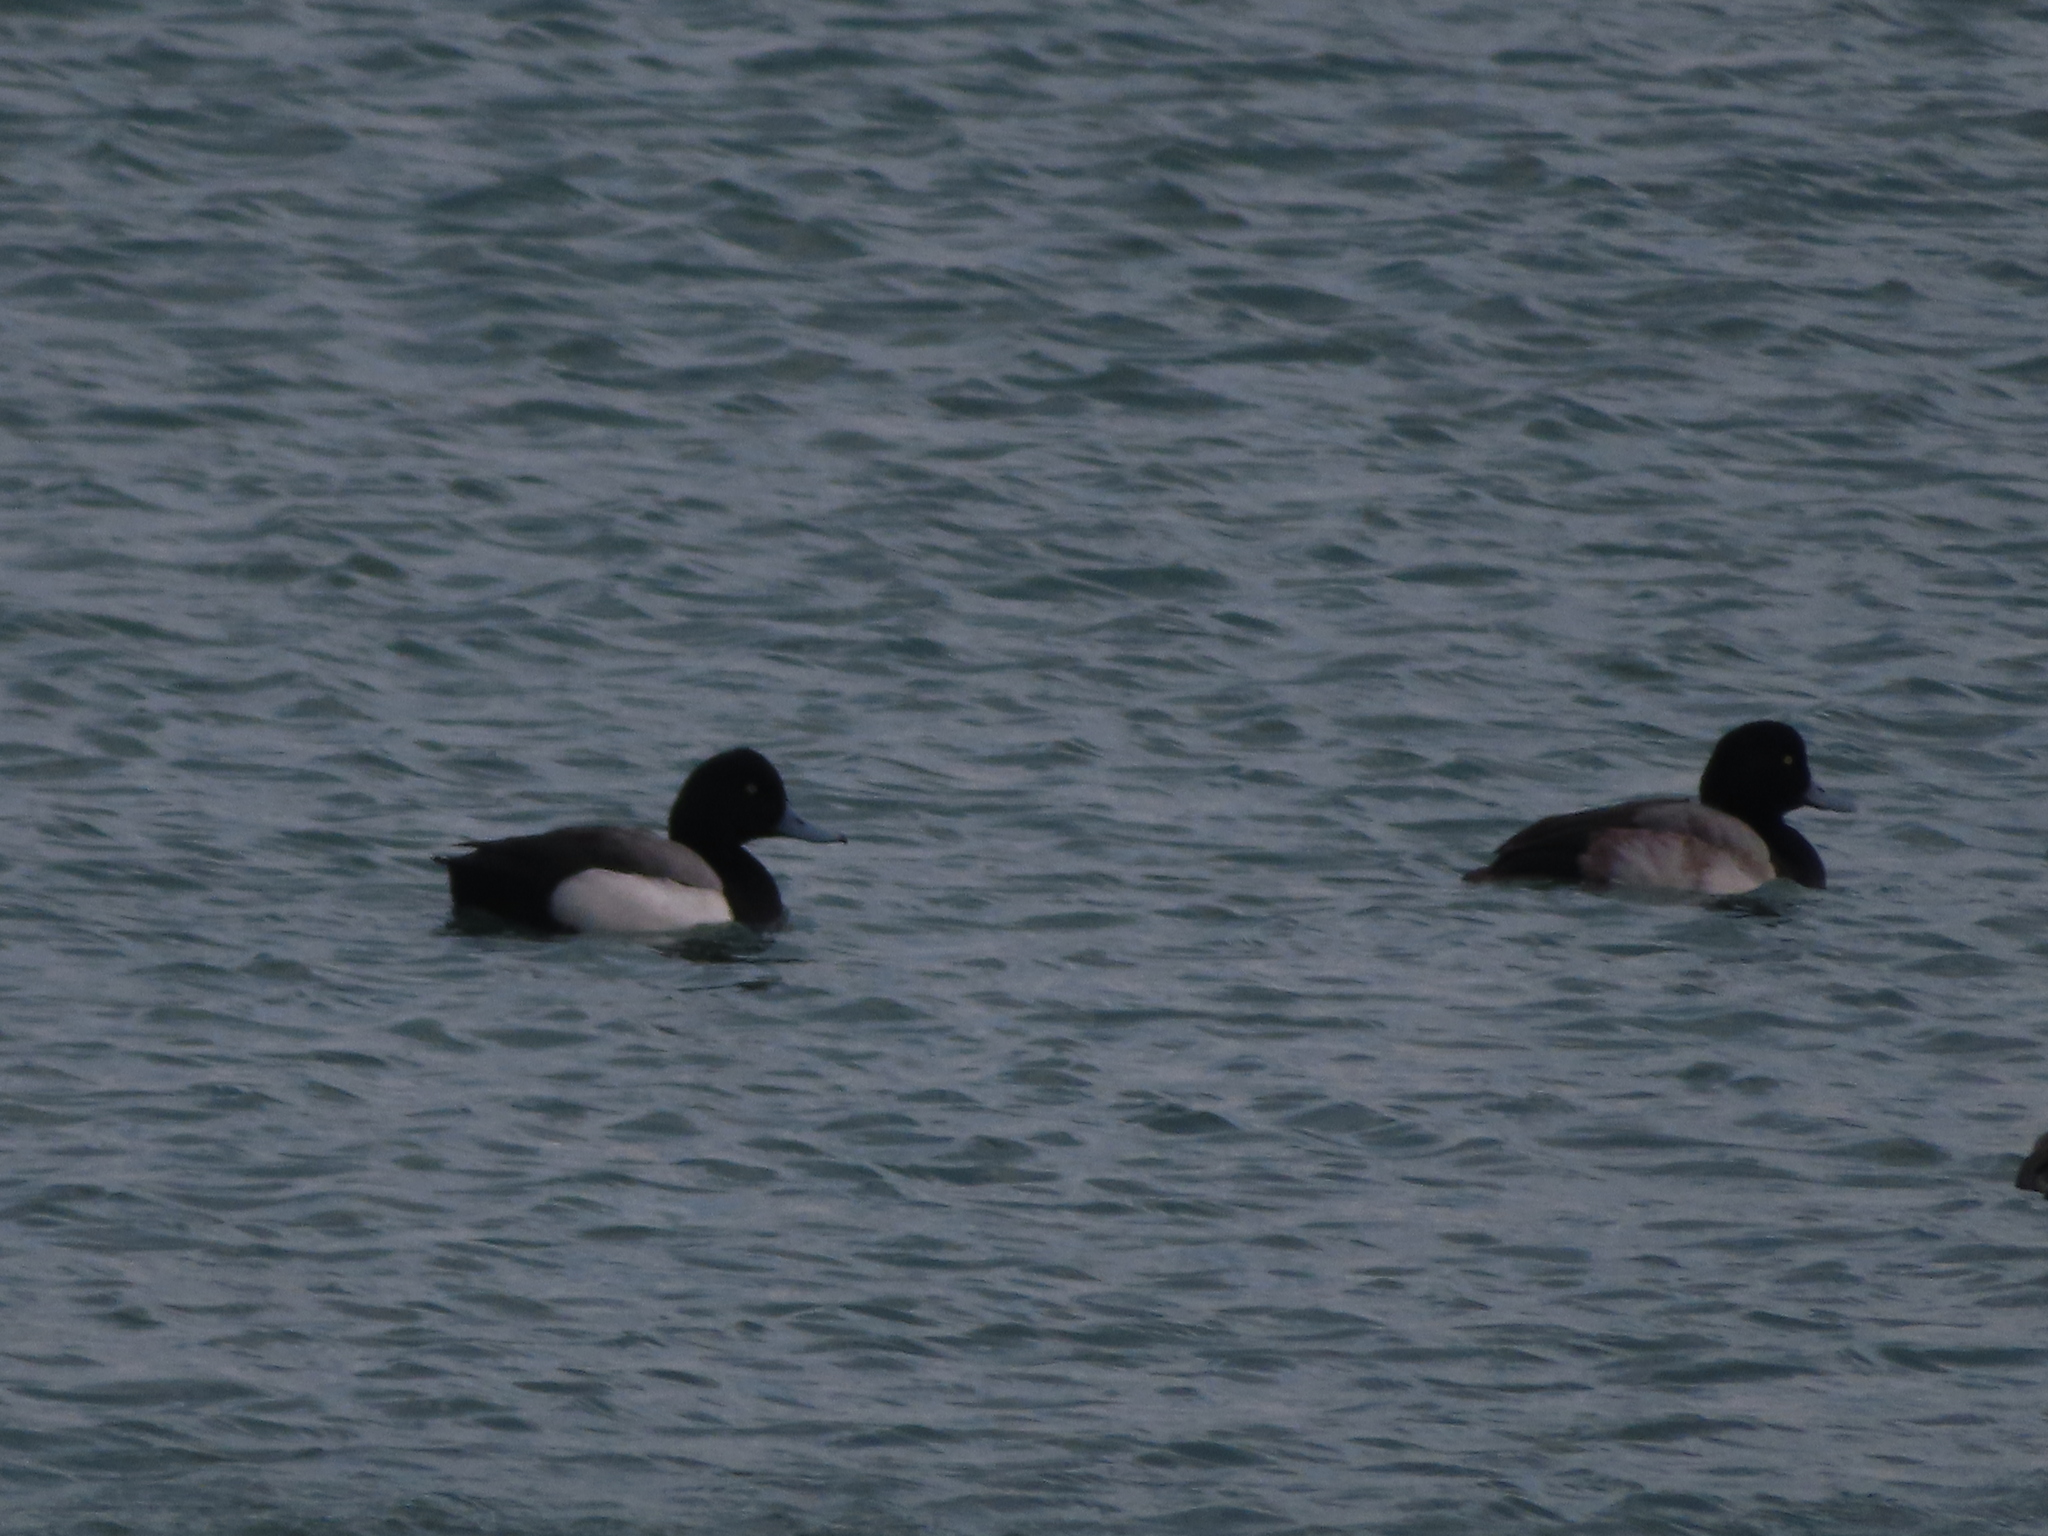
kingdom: Animalia
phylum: Chordata
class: Aves
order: Anseriformes
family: Anatidae
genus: Aythya
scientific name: Aythya marila
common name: Greater scaup
